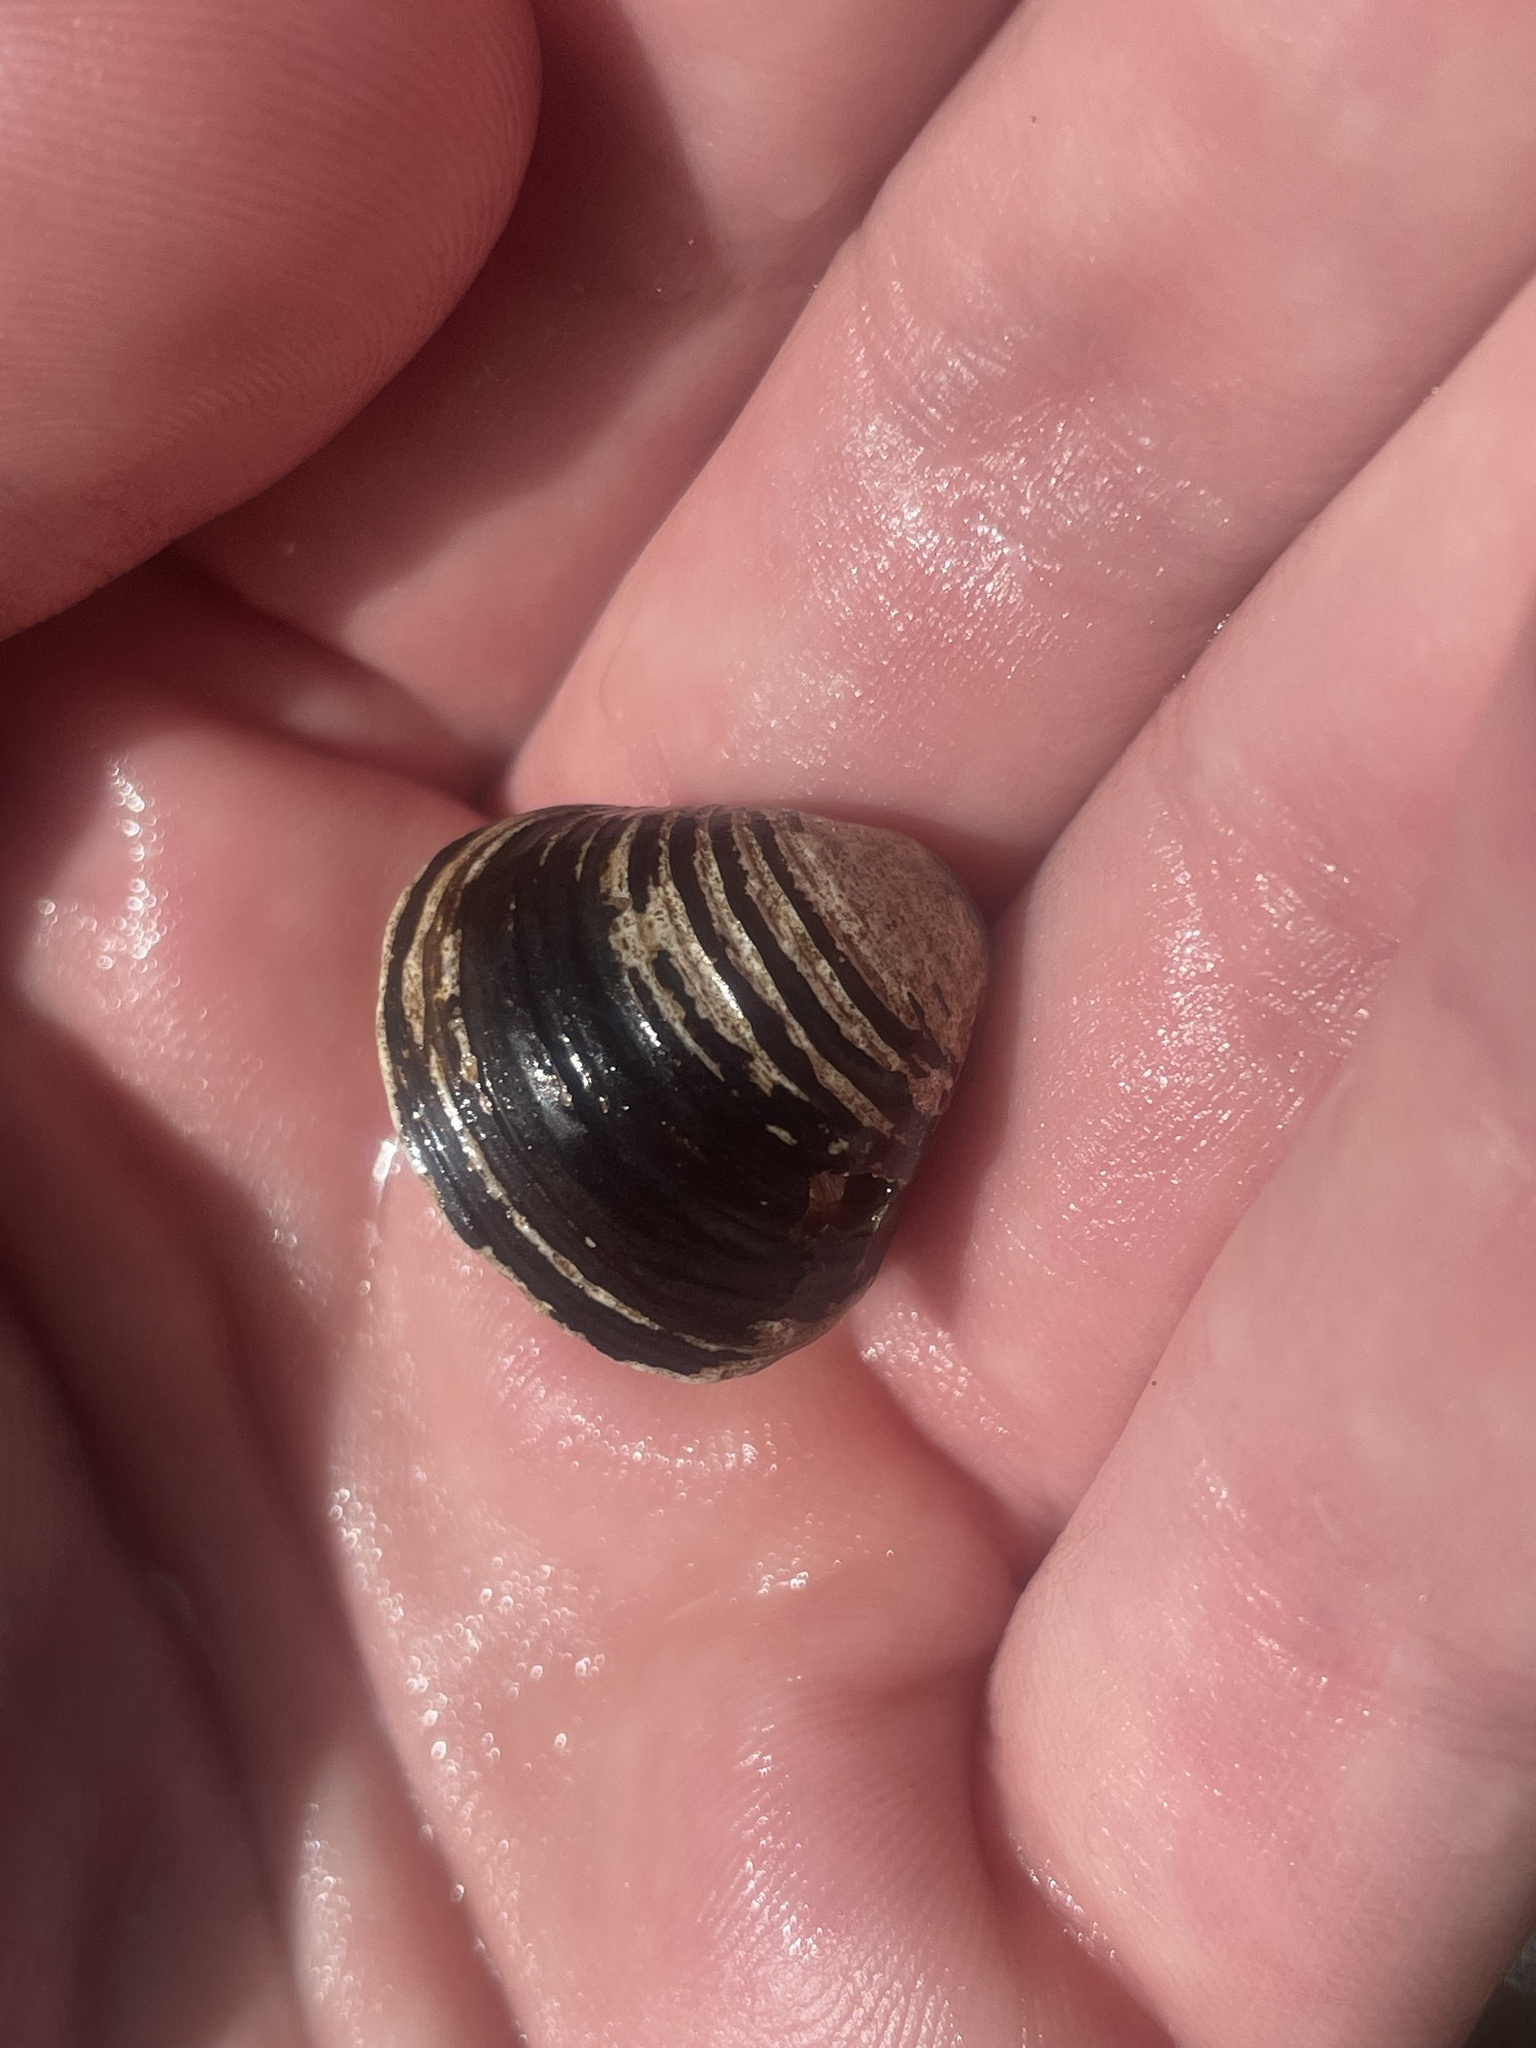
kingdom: Animalia
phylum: Mollusca
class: Bivalvia
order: Venerida
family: Cyrenidae
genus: Corbicula
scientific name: Corbicula fluminea
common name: Asian clam
